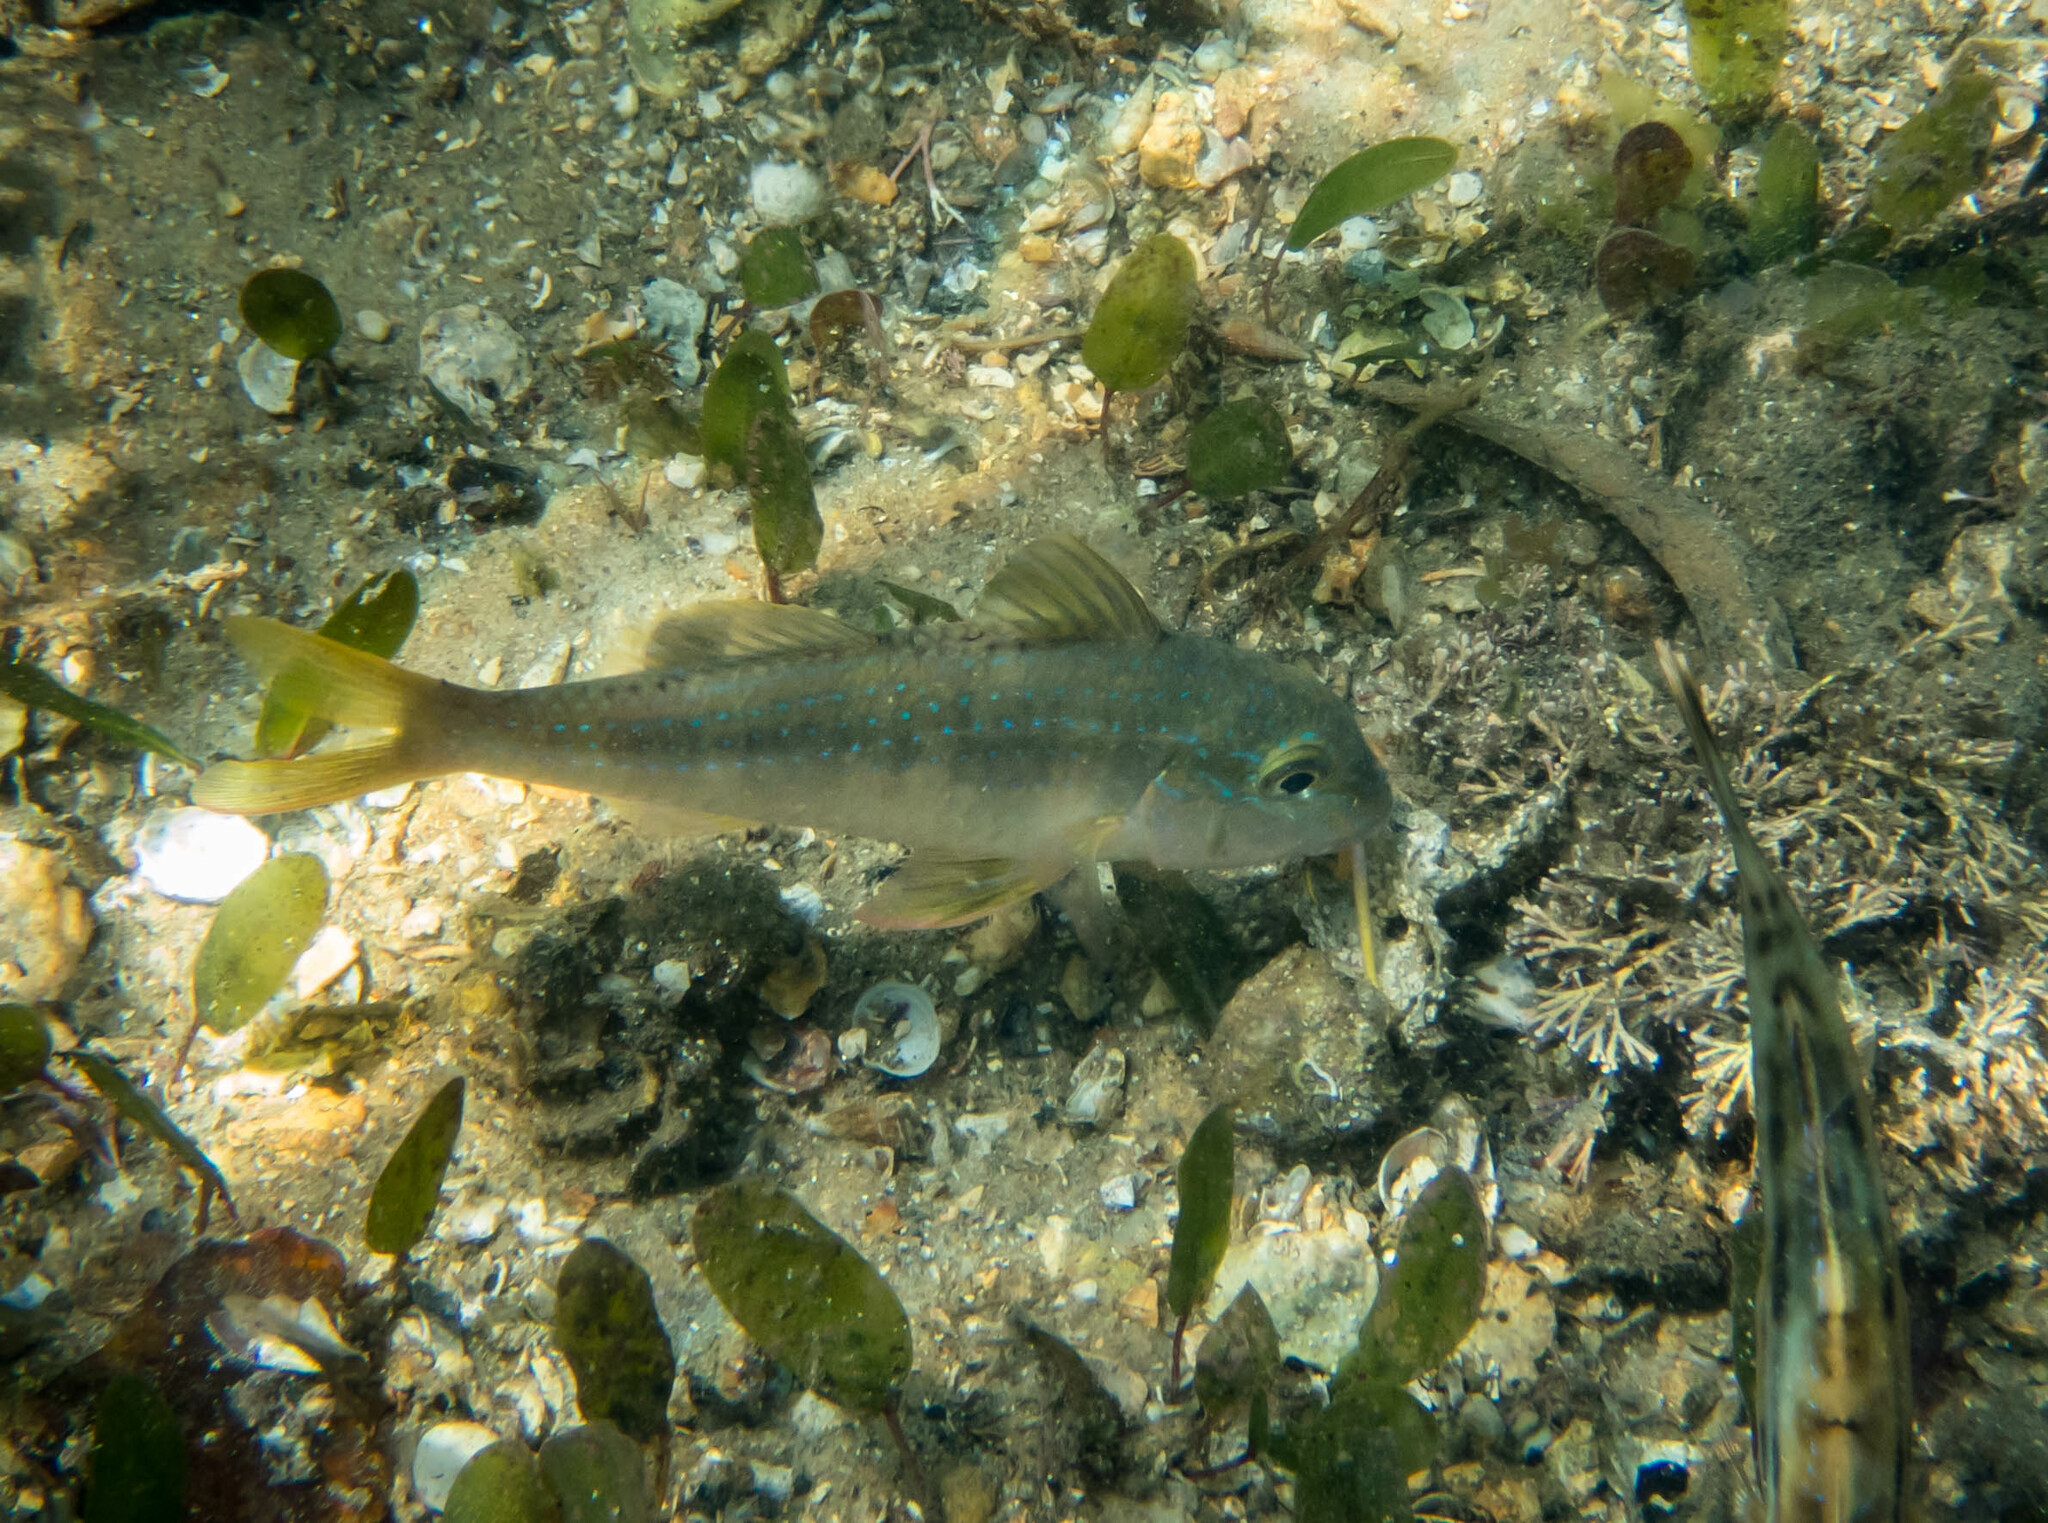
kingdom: Animalia
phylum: Chordata
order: Perciformes
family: Mullidae
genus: Upeneichthys
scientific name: Upeneichthys lineatus
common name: Red mullet
